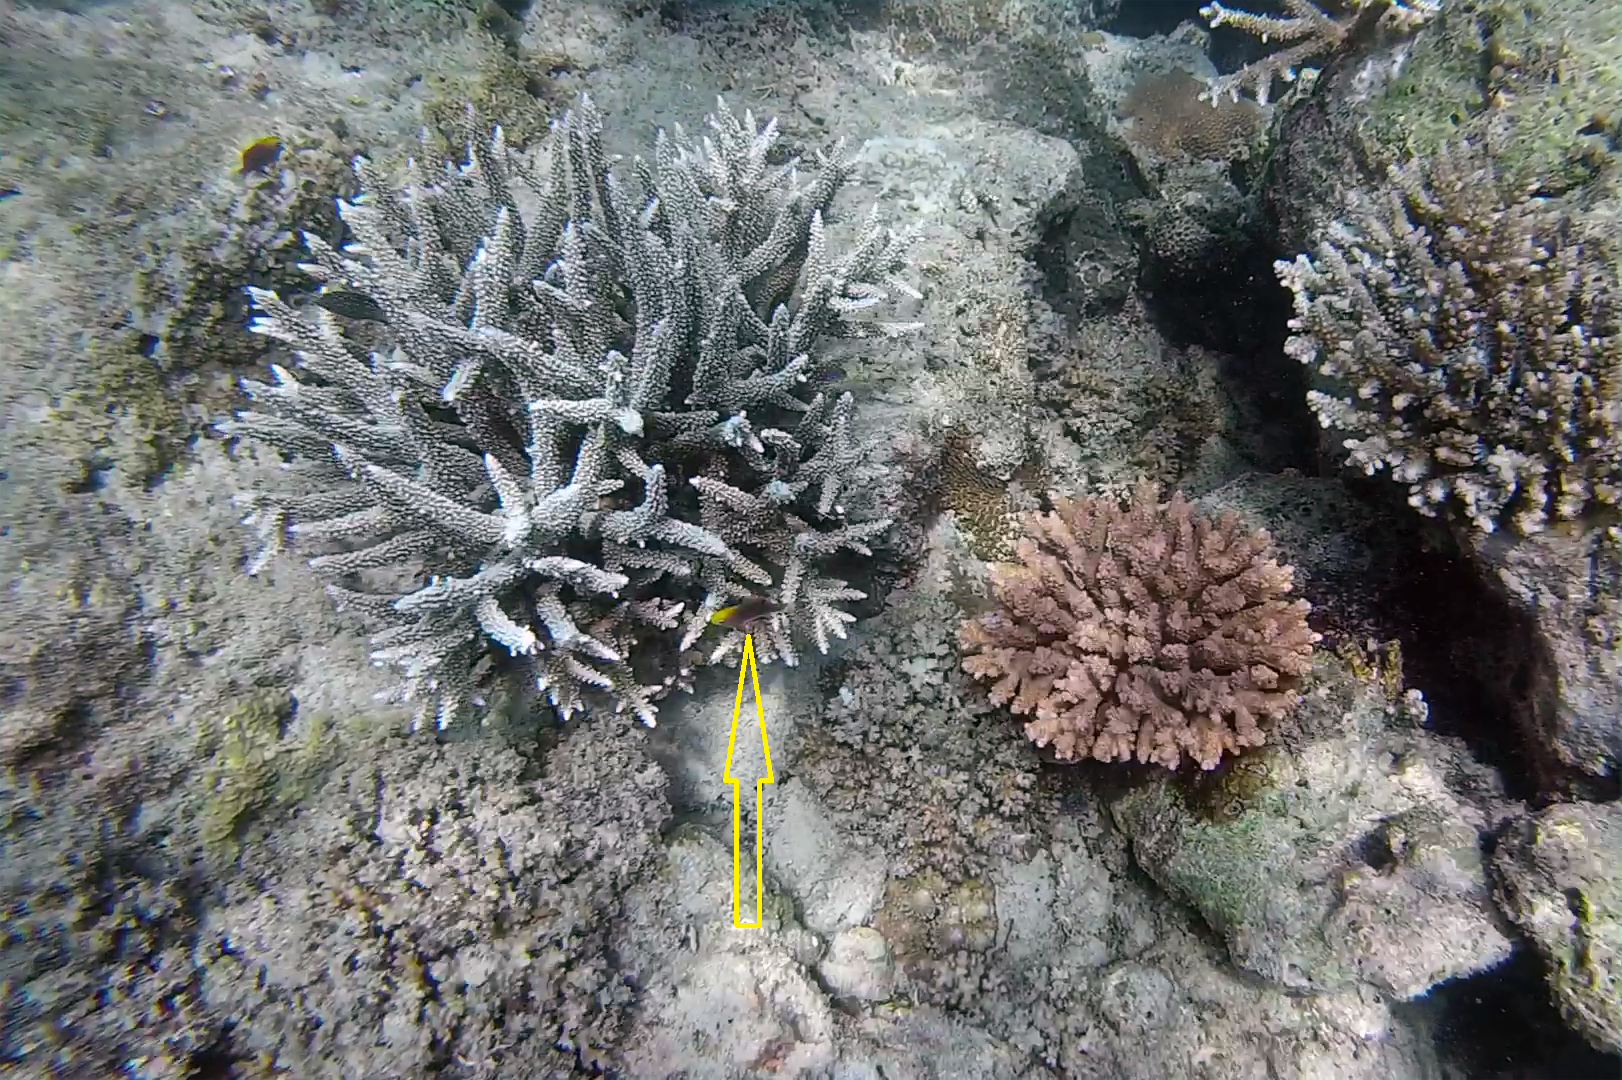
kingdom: Animalia
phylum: Chordata
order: Perciformes
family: Pomacentridae
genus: Chrysiptera
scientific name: Chrysiptera talboti
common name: Talbot's demoiselle
